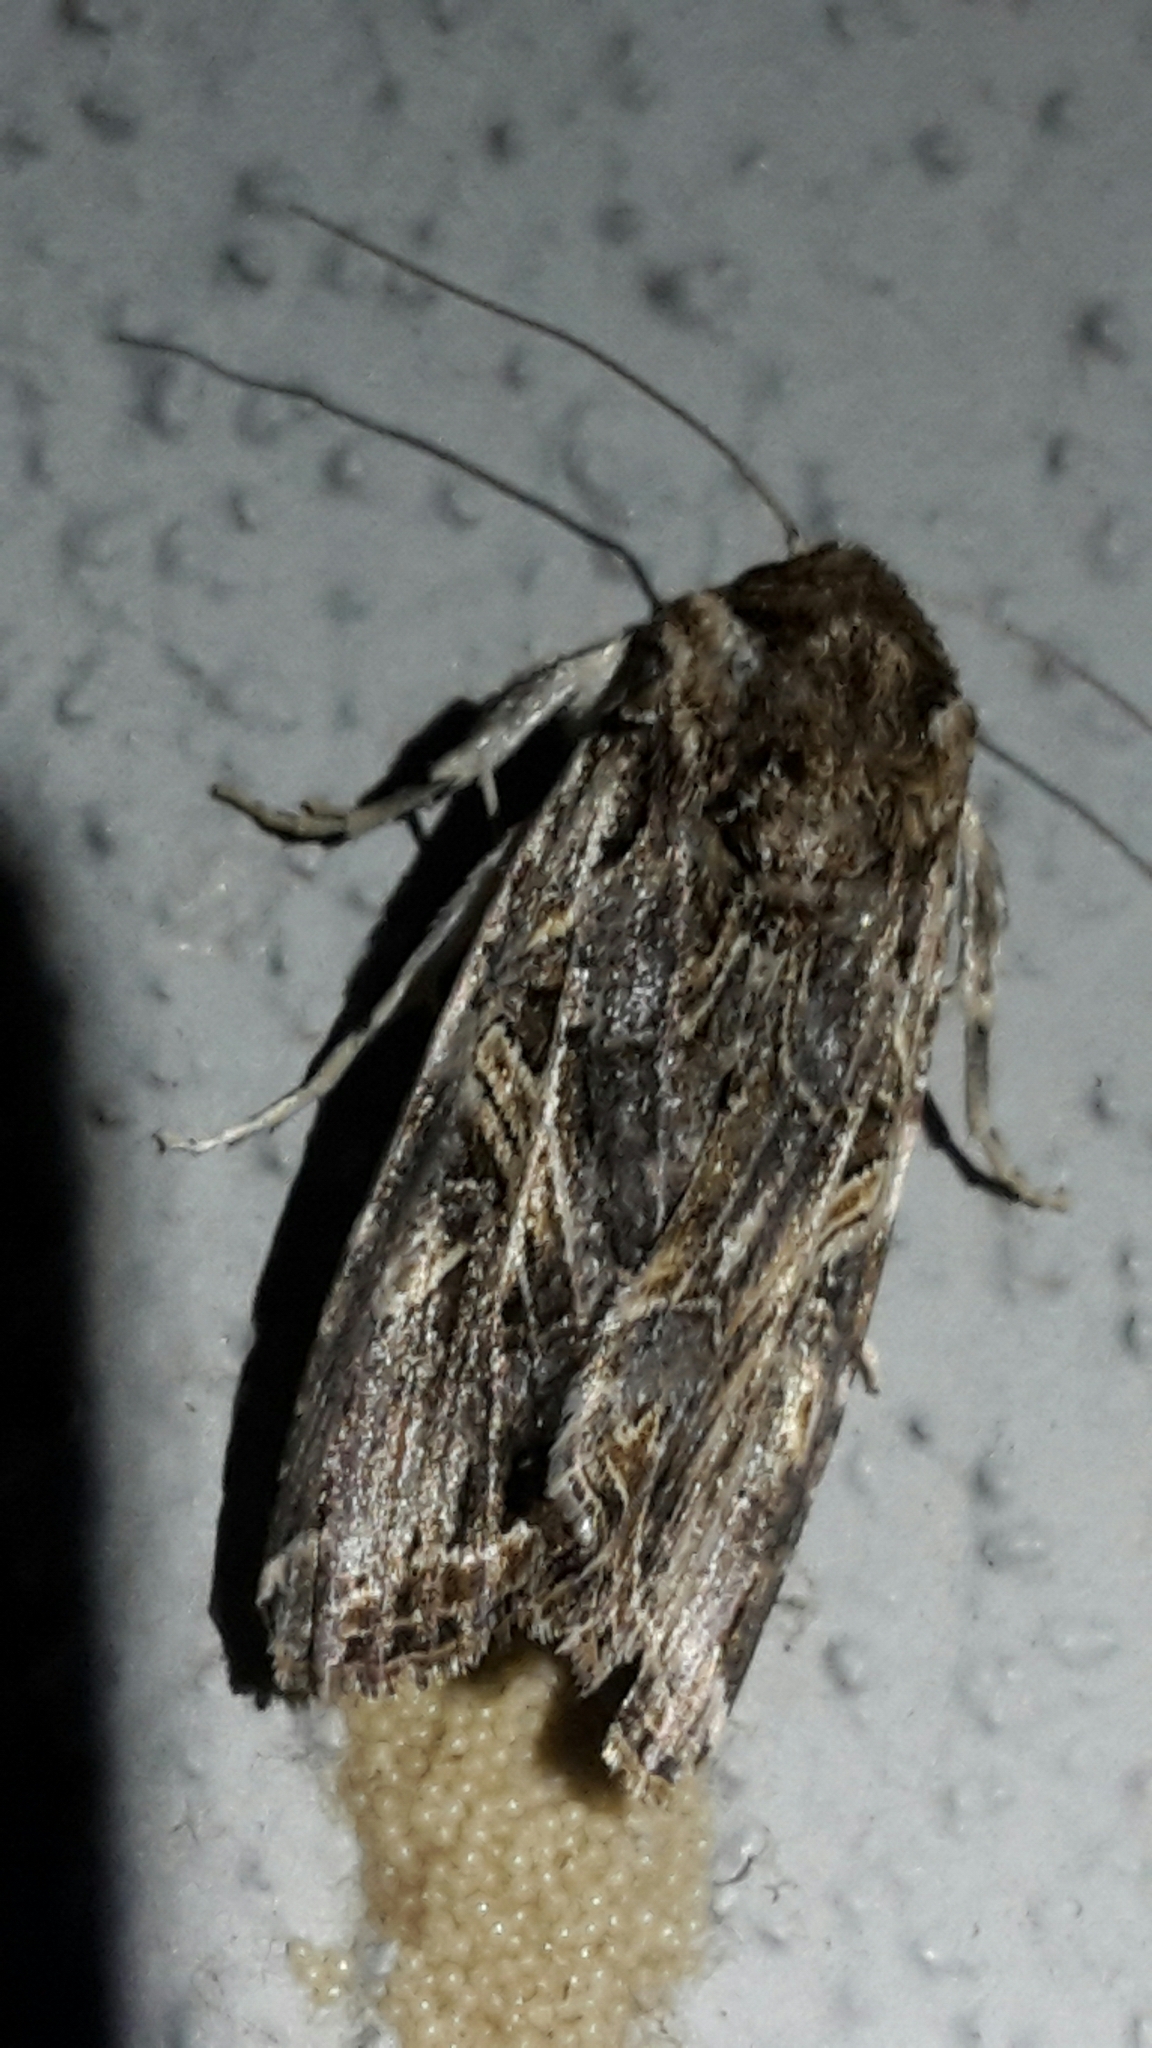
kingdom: Animalia
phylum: Arthropoda
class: Insecta
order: Lepidoptera
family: Noctuidae
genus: Spodoptera
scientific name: Spodoptera litura
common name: Asian cotton leafworm
